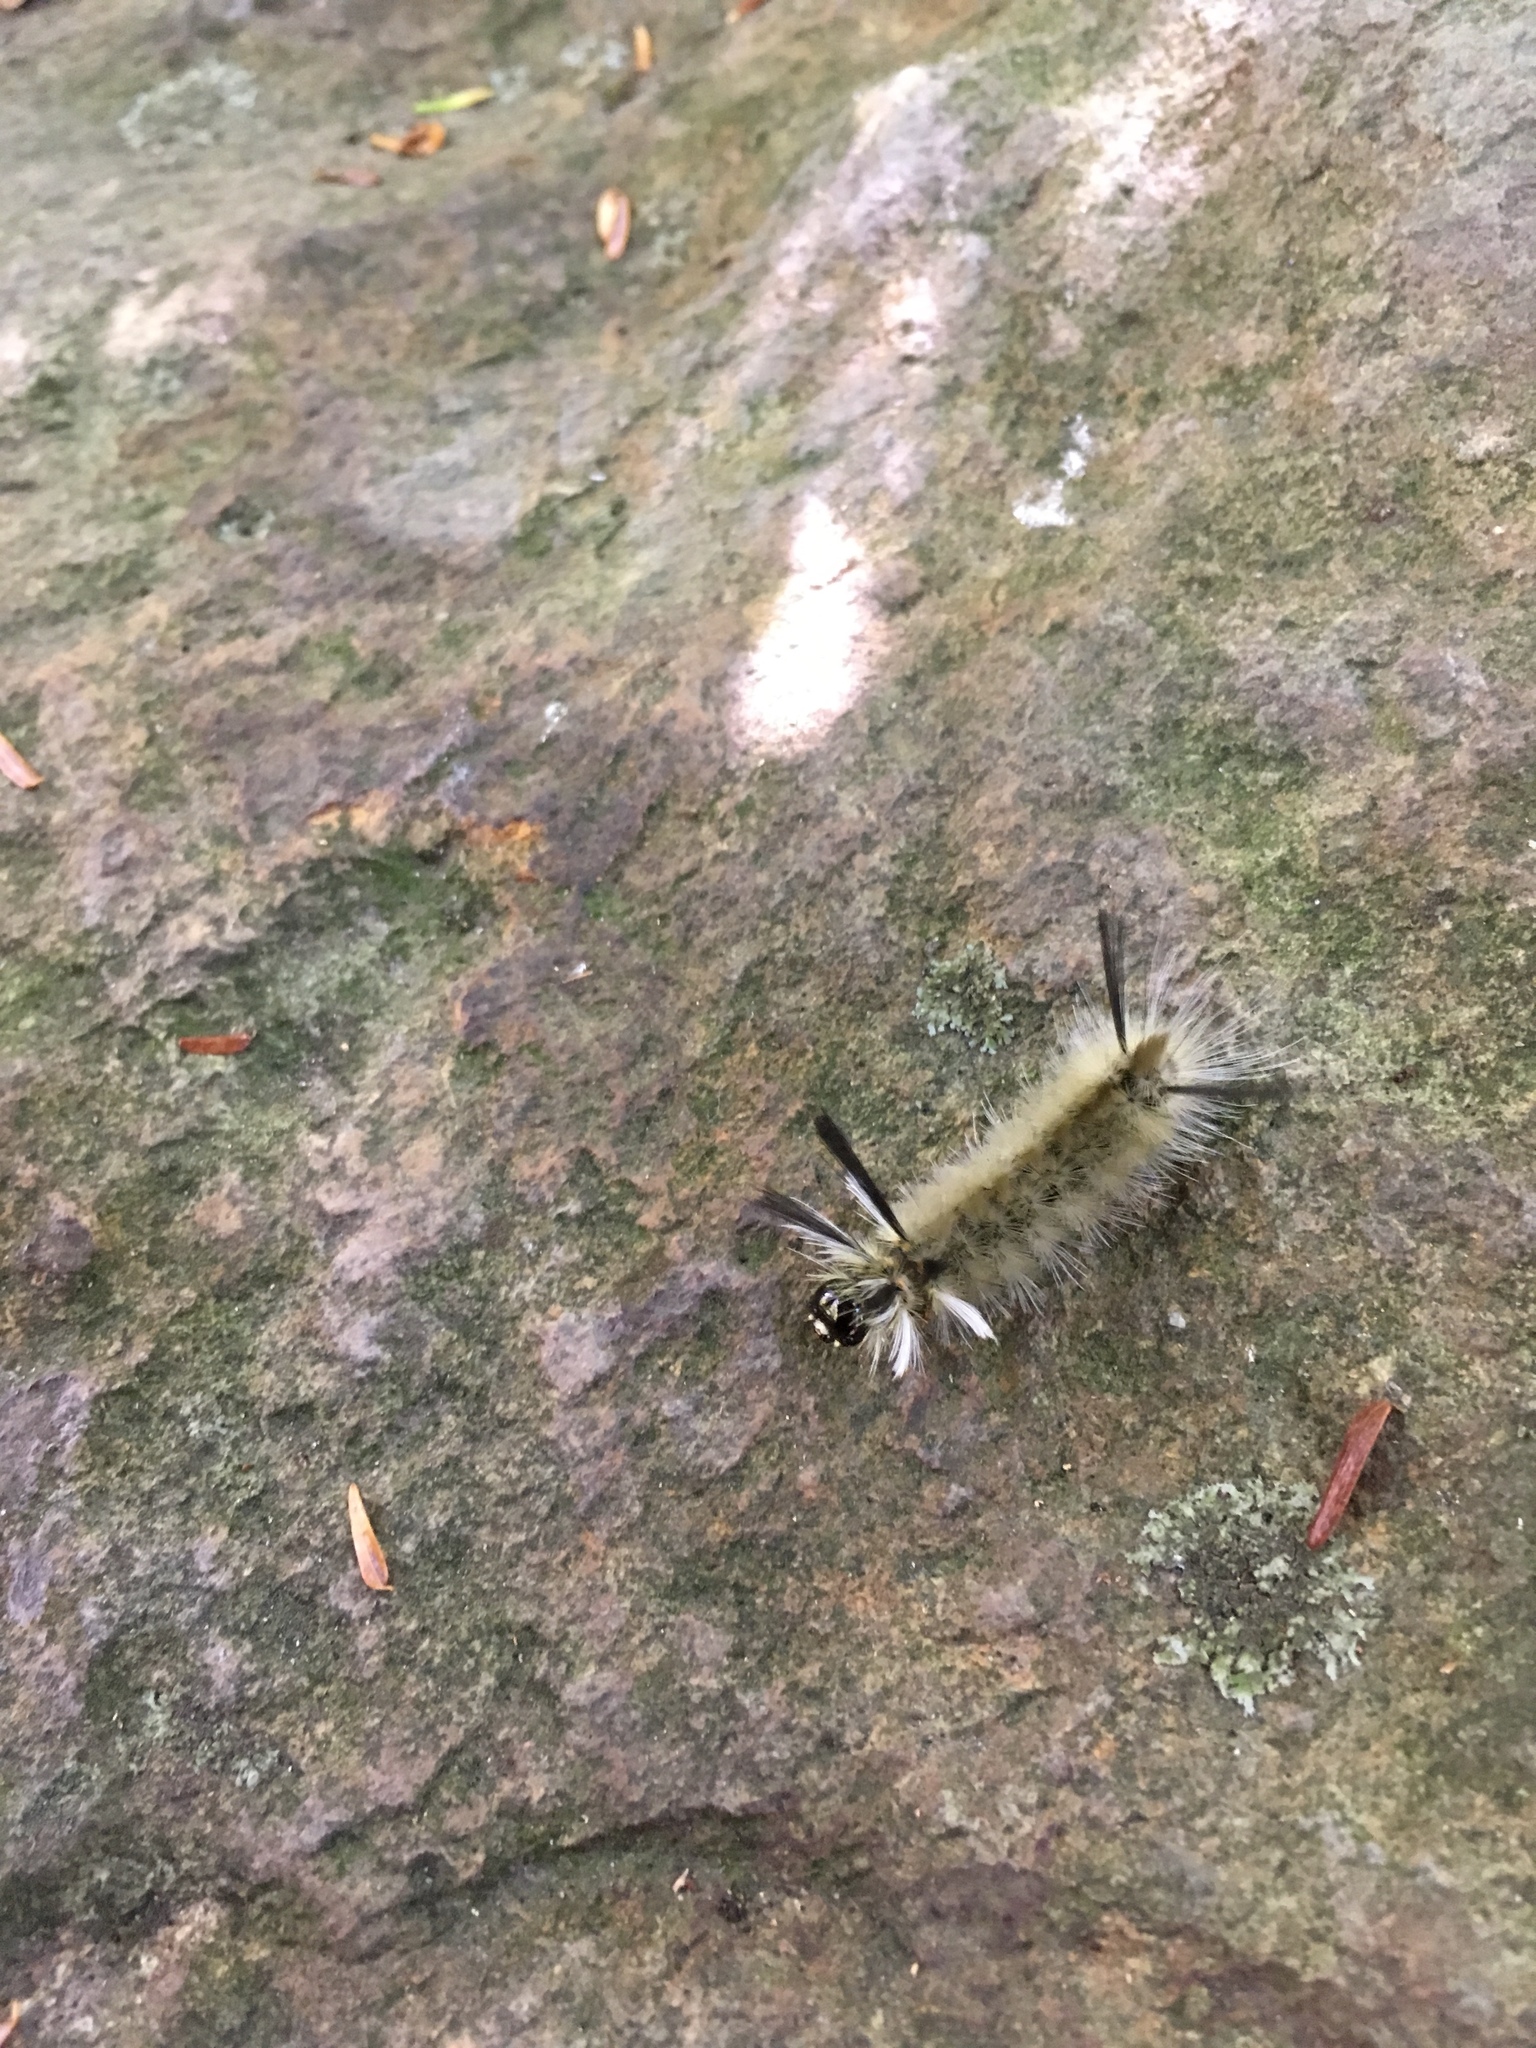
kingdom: Animalia
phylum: Arthropoda
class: Insecta
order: Lepidoptera
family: Erebidae
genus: Halysidota
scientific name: Halysidota tessellaris
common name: Banded tussock moth
